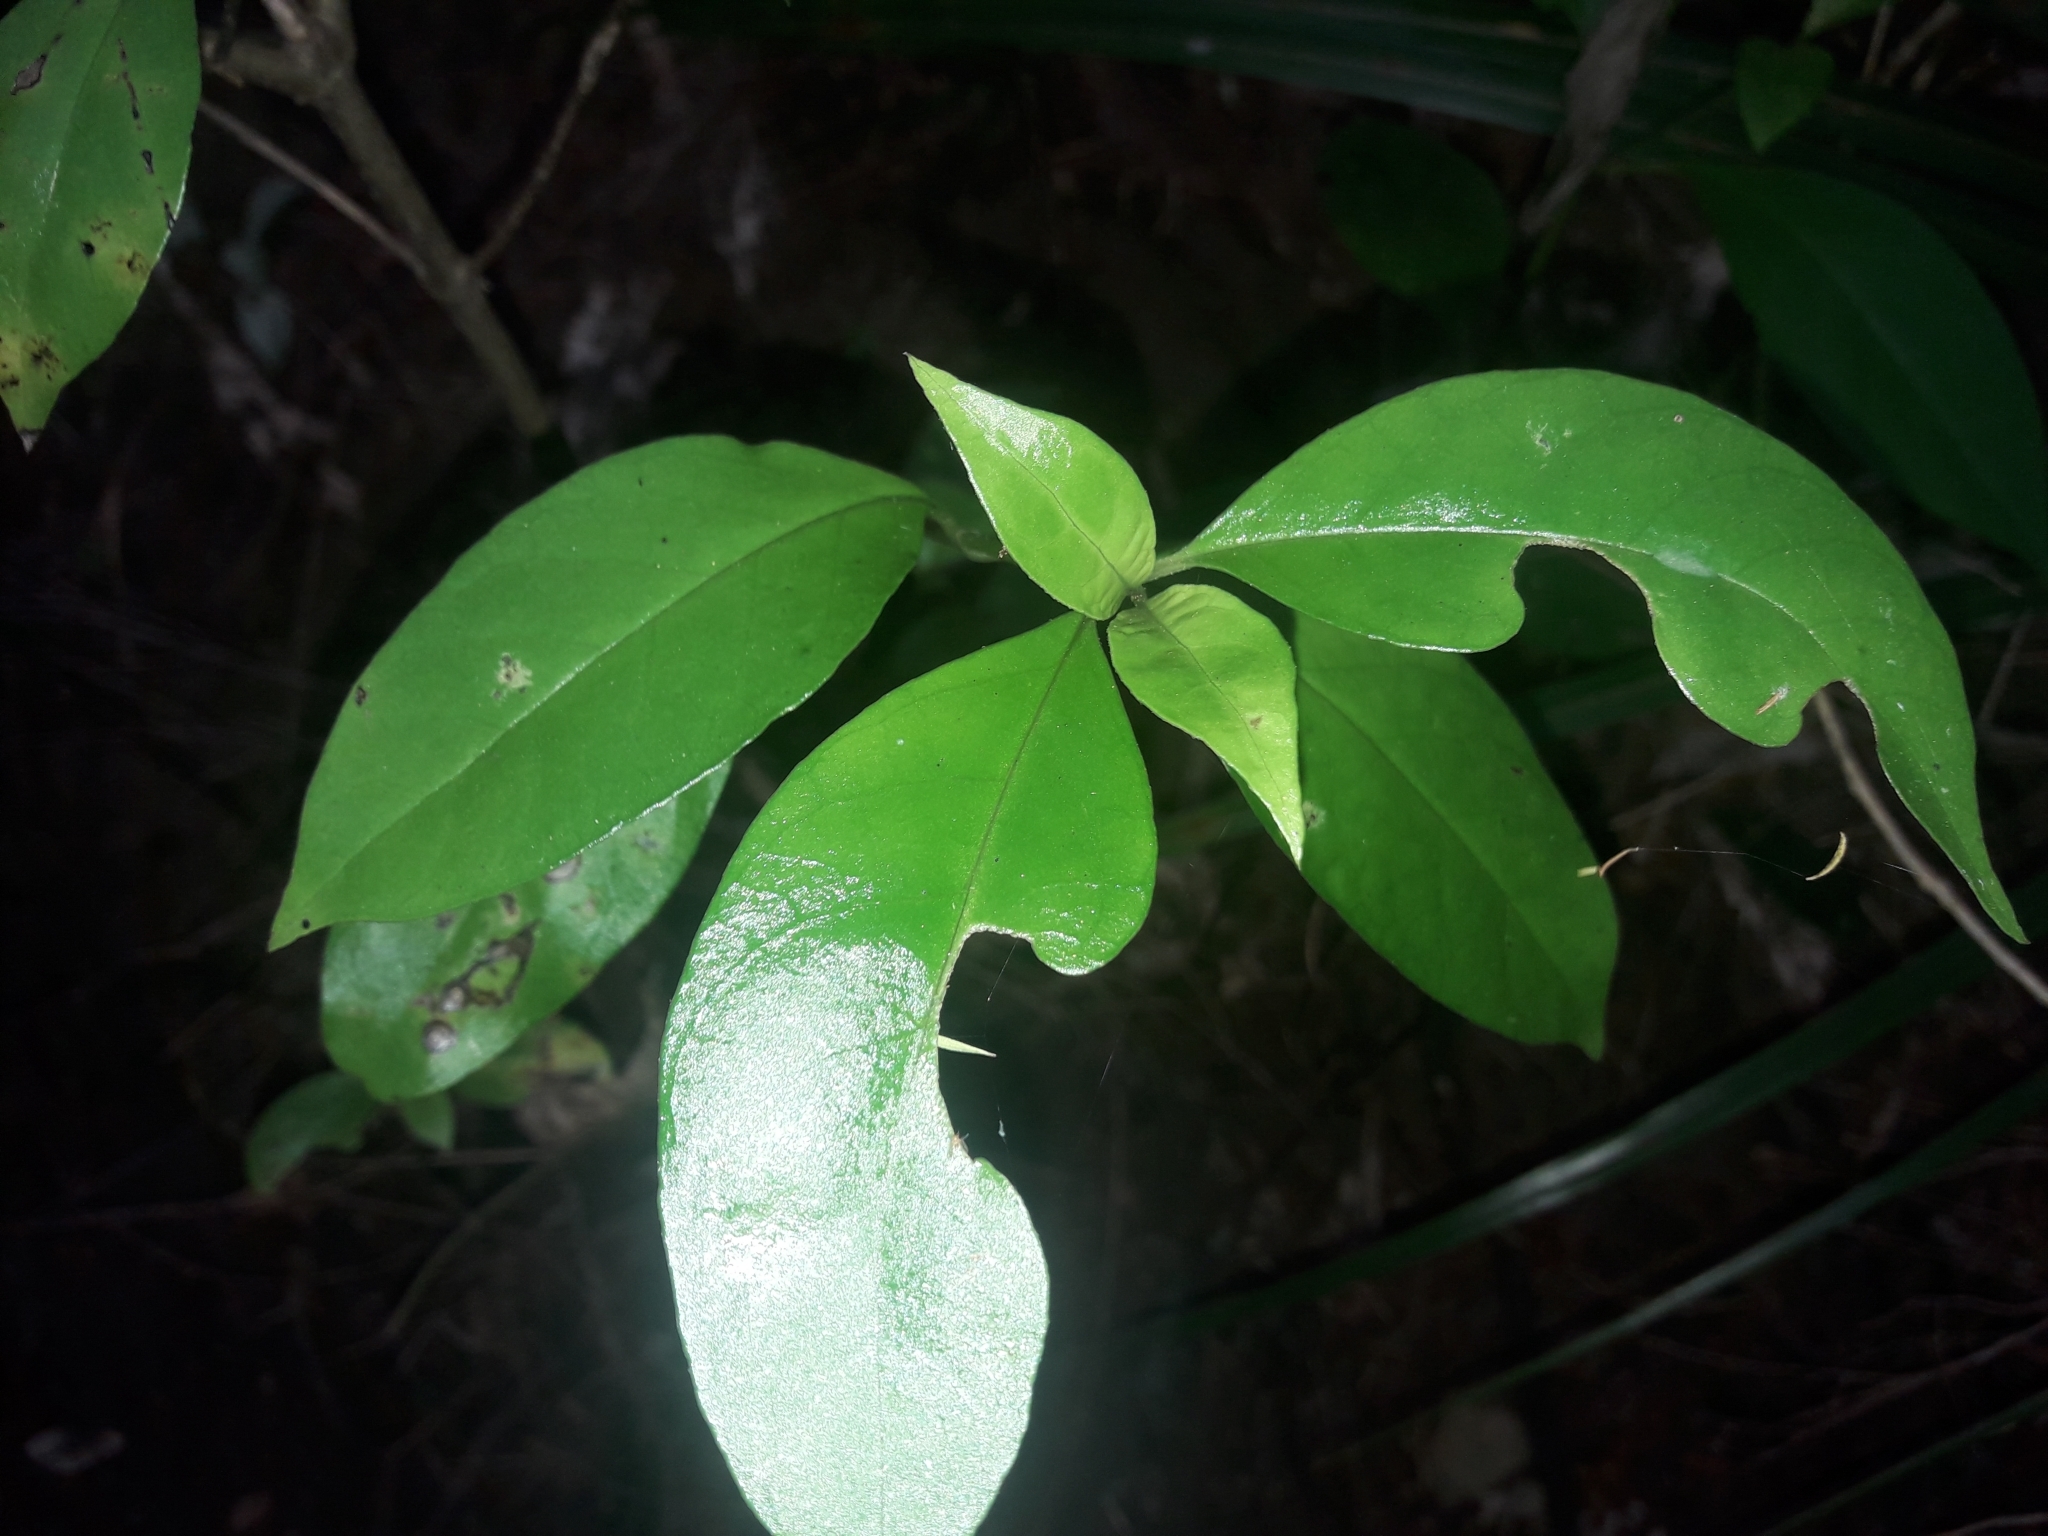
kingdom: Plantae
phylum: Tracheophyta
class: Magnoliopsida
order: Gentianales
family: Loganiaceae
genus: Geniostoma
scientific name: Geniostoma ligustrifolium
